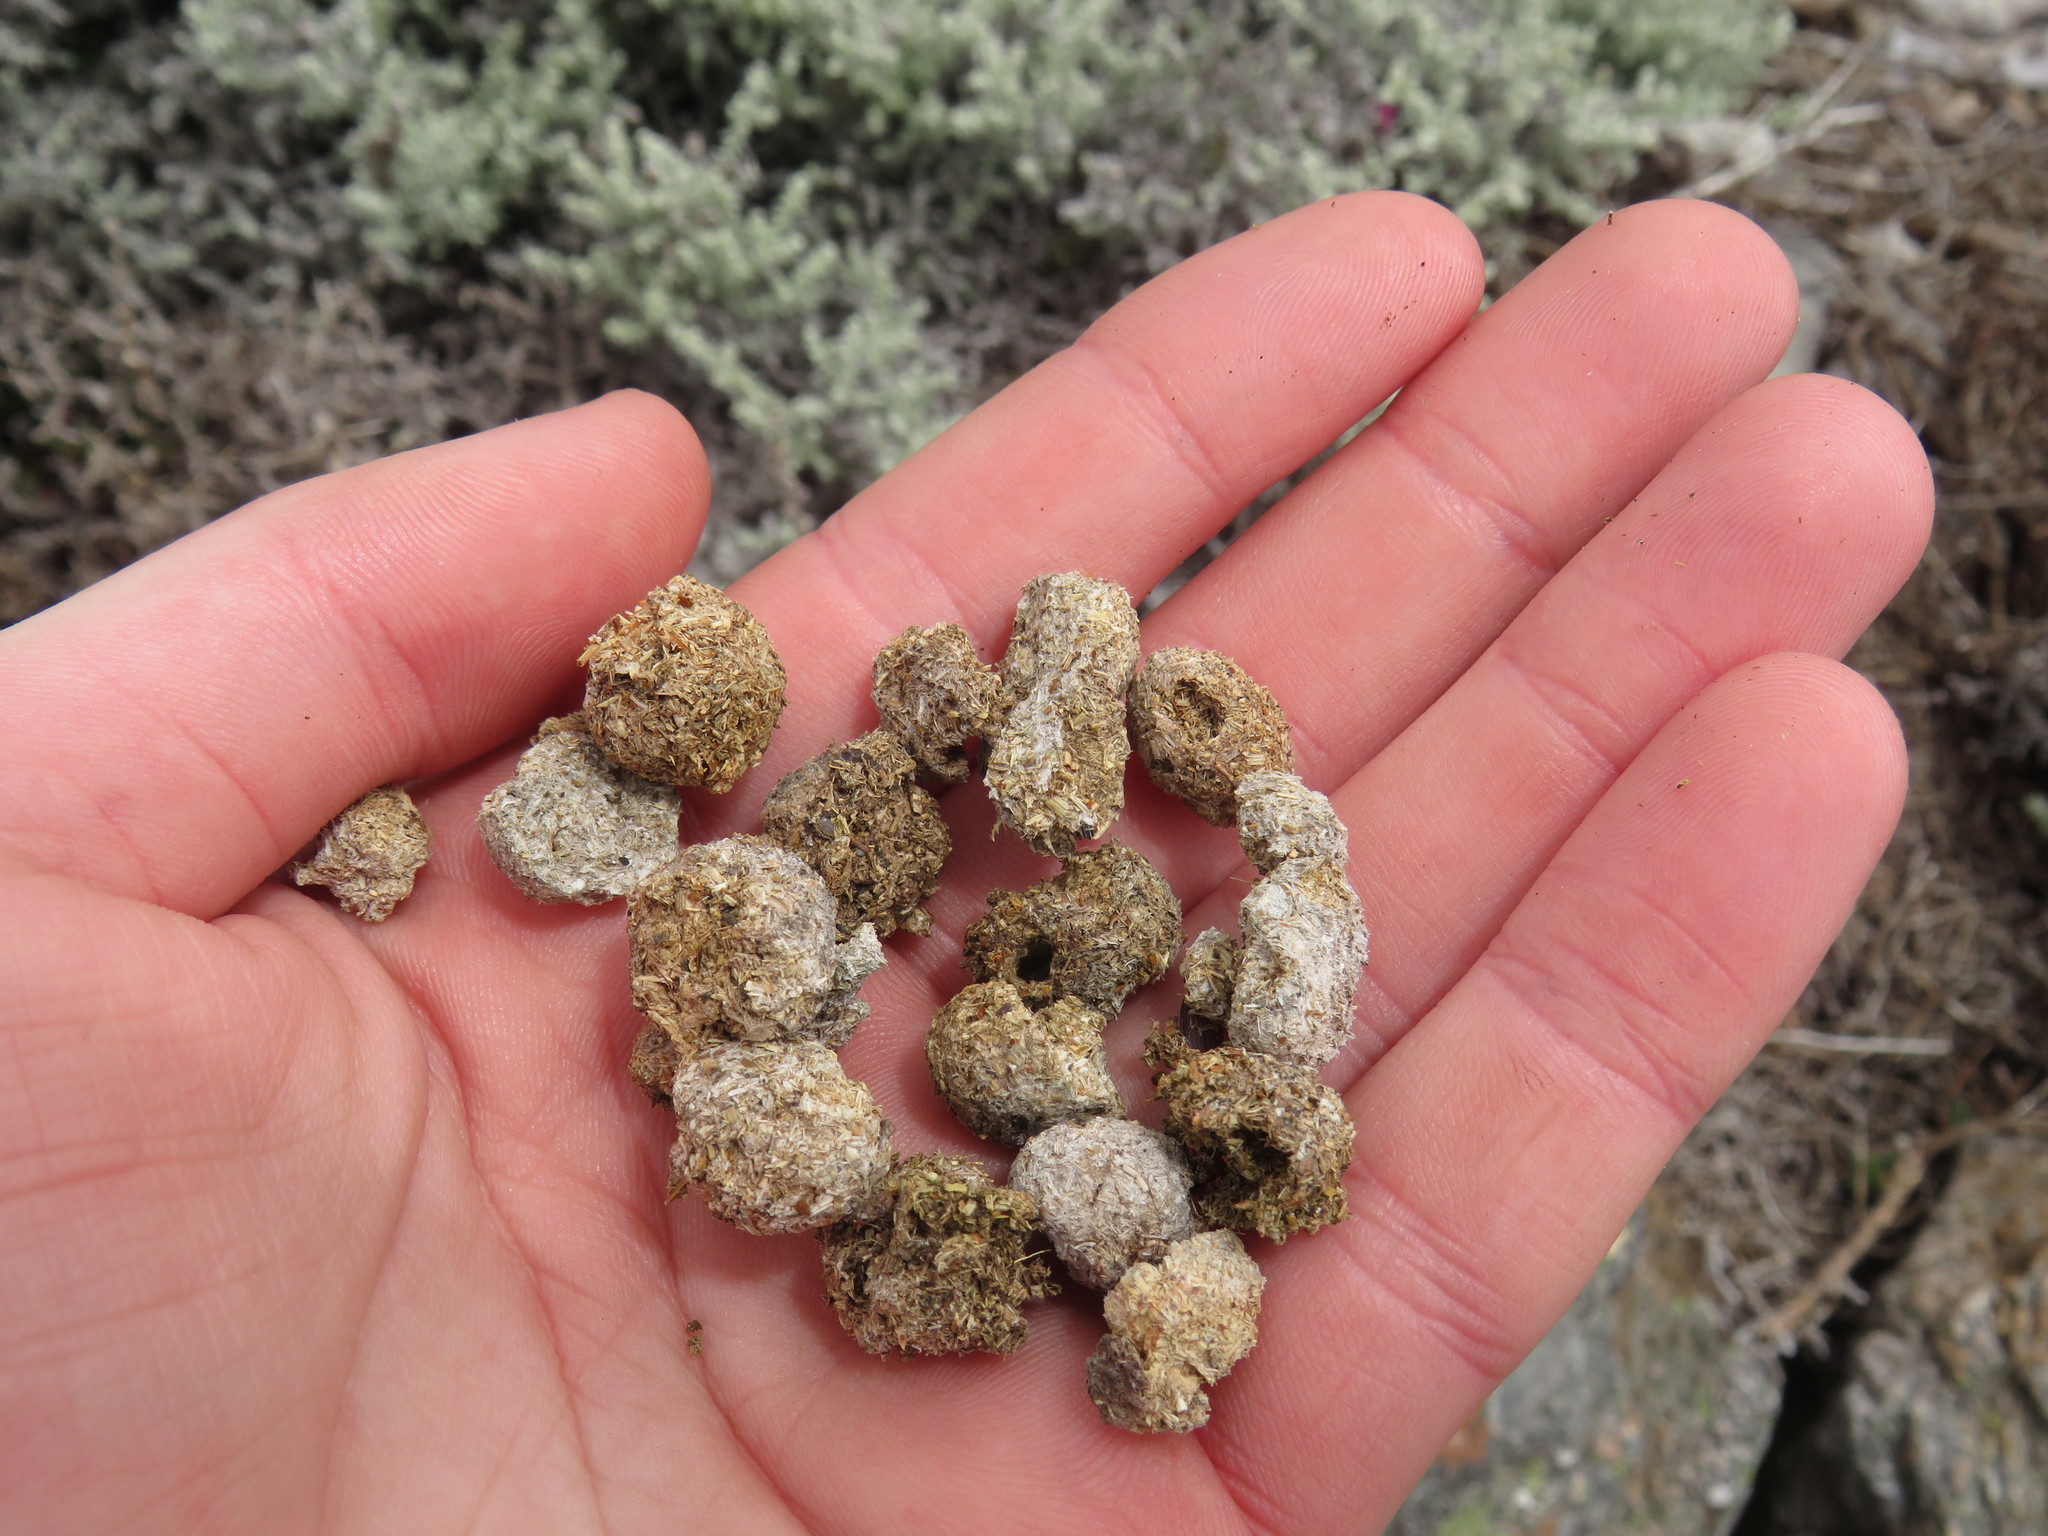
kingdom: Animalia
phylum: Chordata
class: Mammalia
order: Lagomorpha
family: Leporidae
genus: Pronolagus
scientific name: Pronolagus saundersiae
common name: Hewitt's red rock hare
